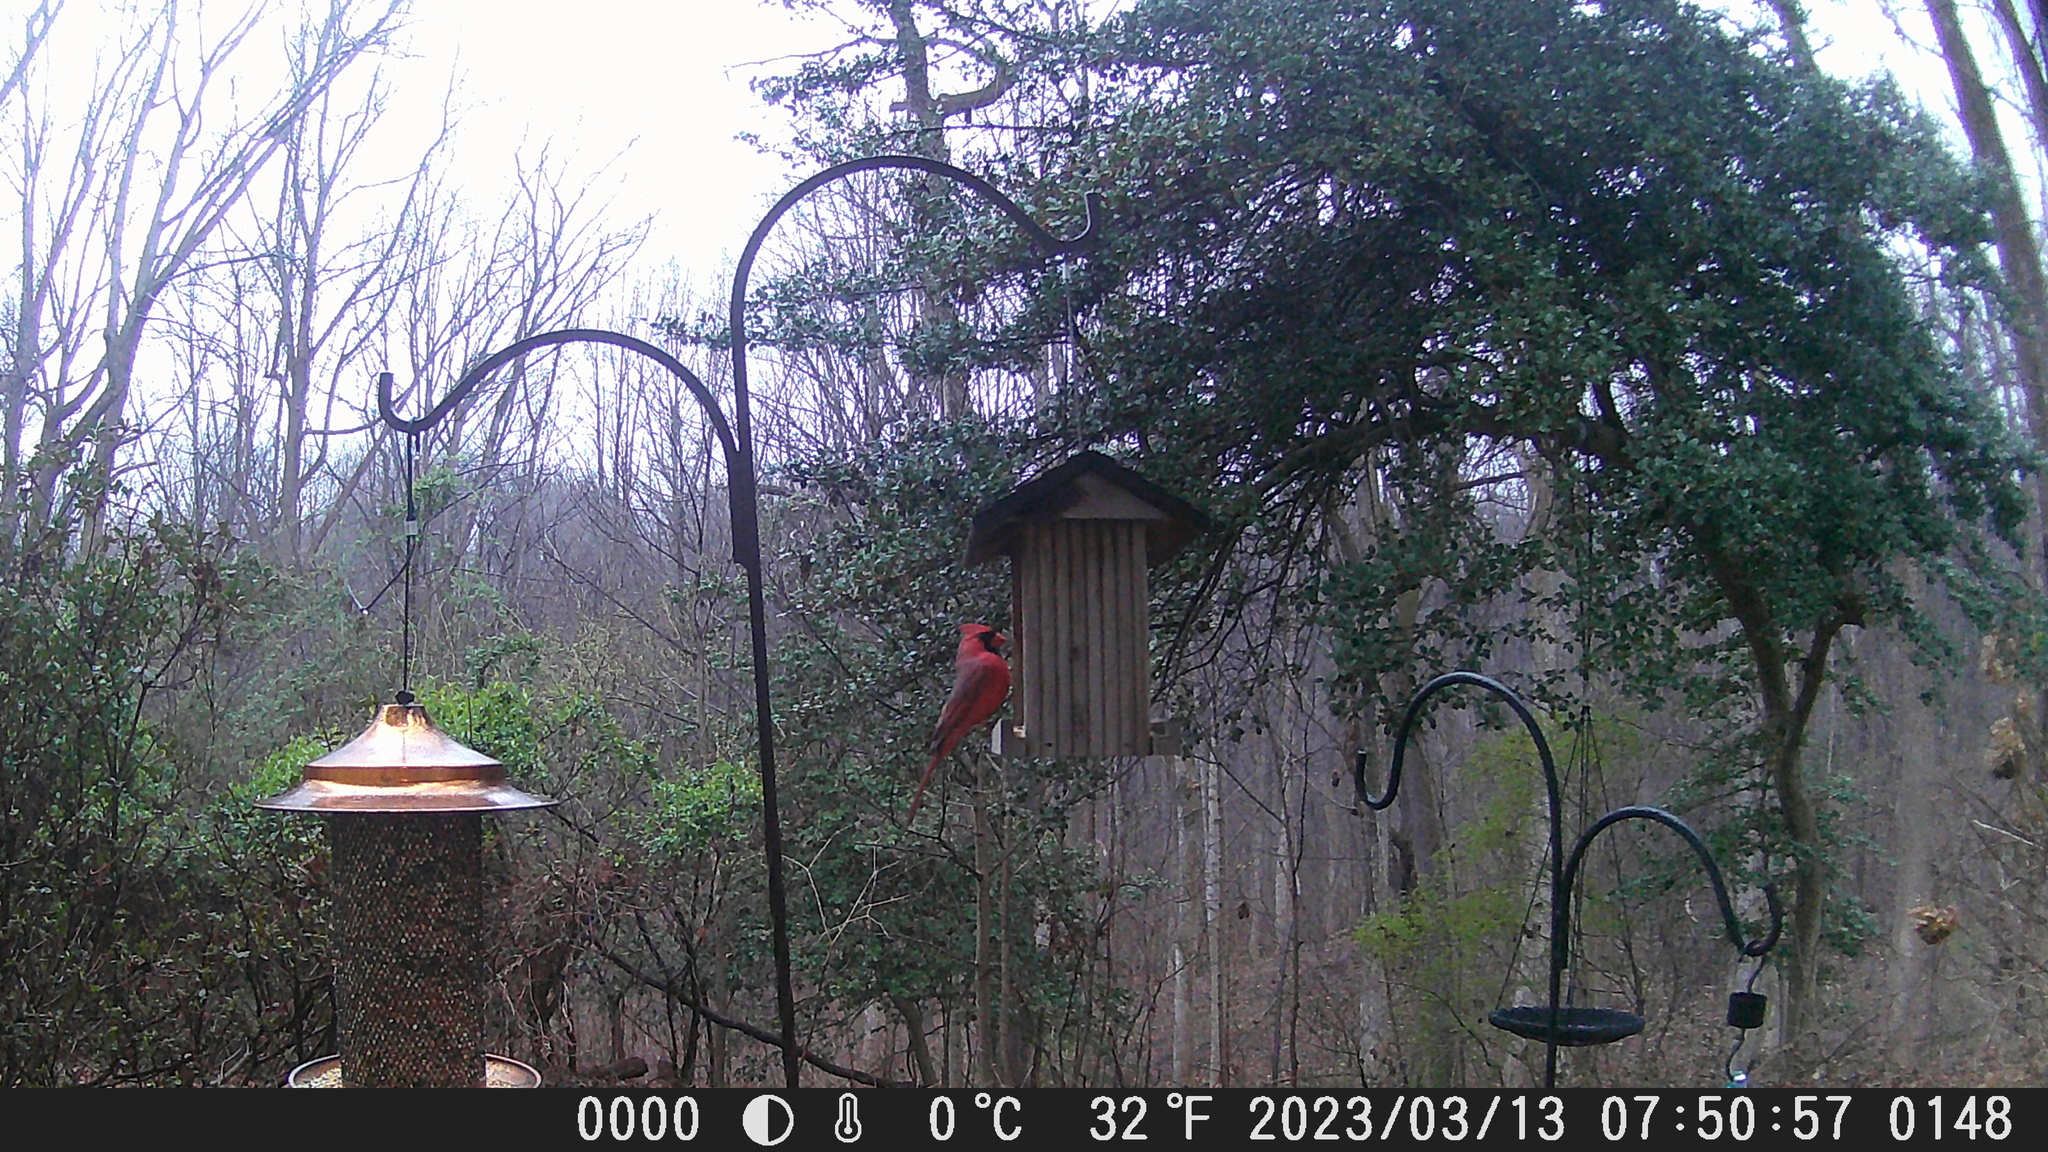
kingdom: Animalia
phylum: Chordata
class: Aves
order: Passeriformes
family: Cardinalidae
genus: Cardinalis
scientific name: Cardinalis cardinalis
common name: Northern cardinal
